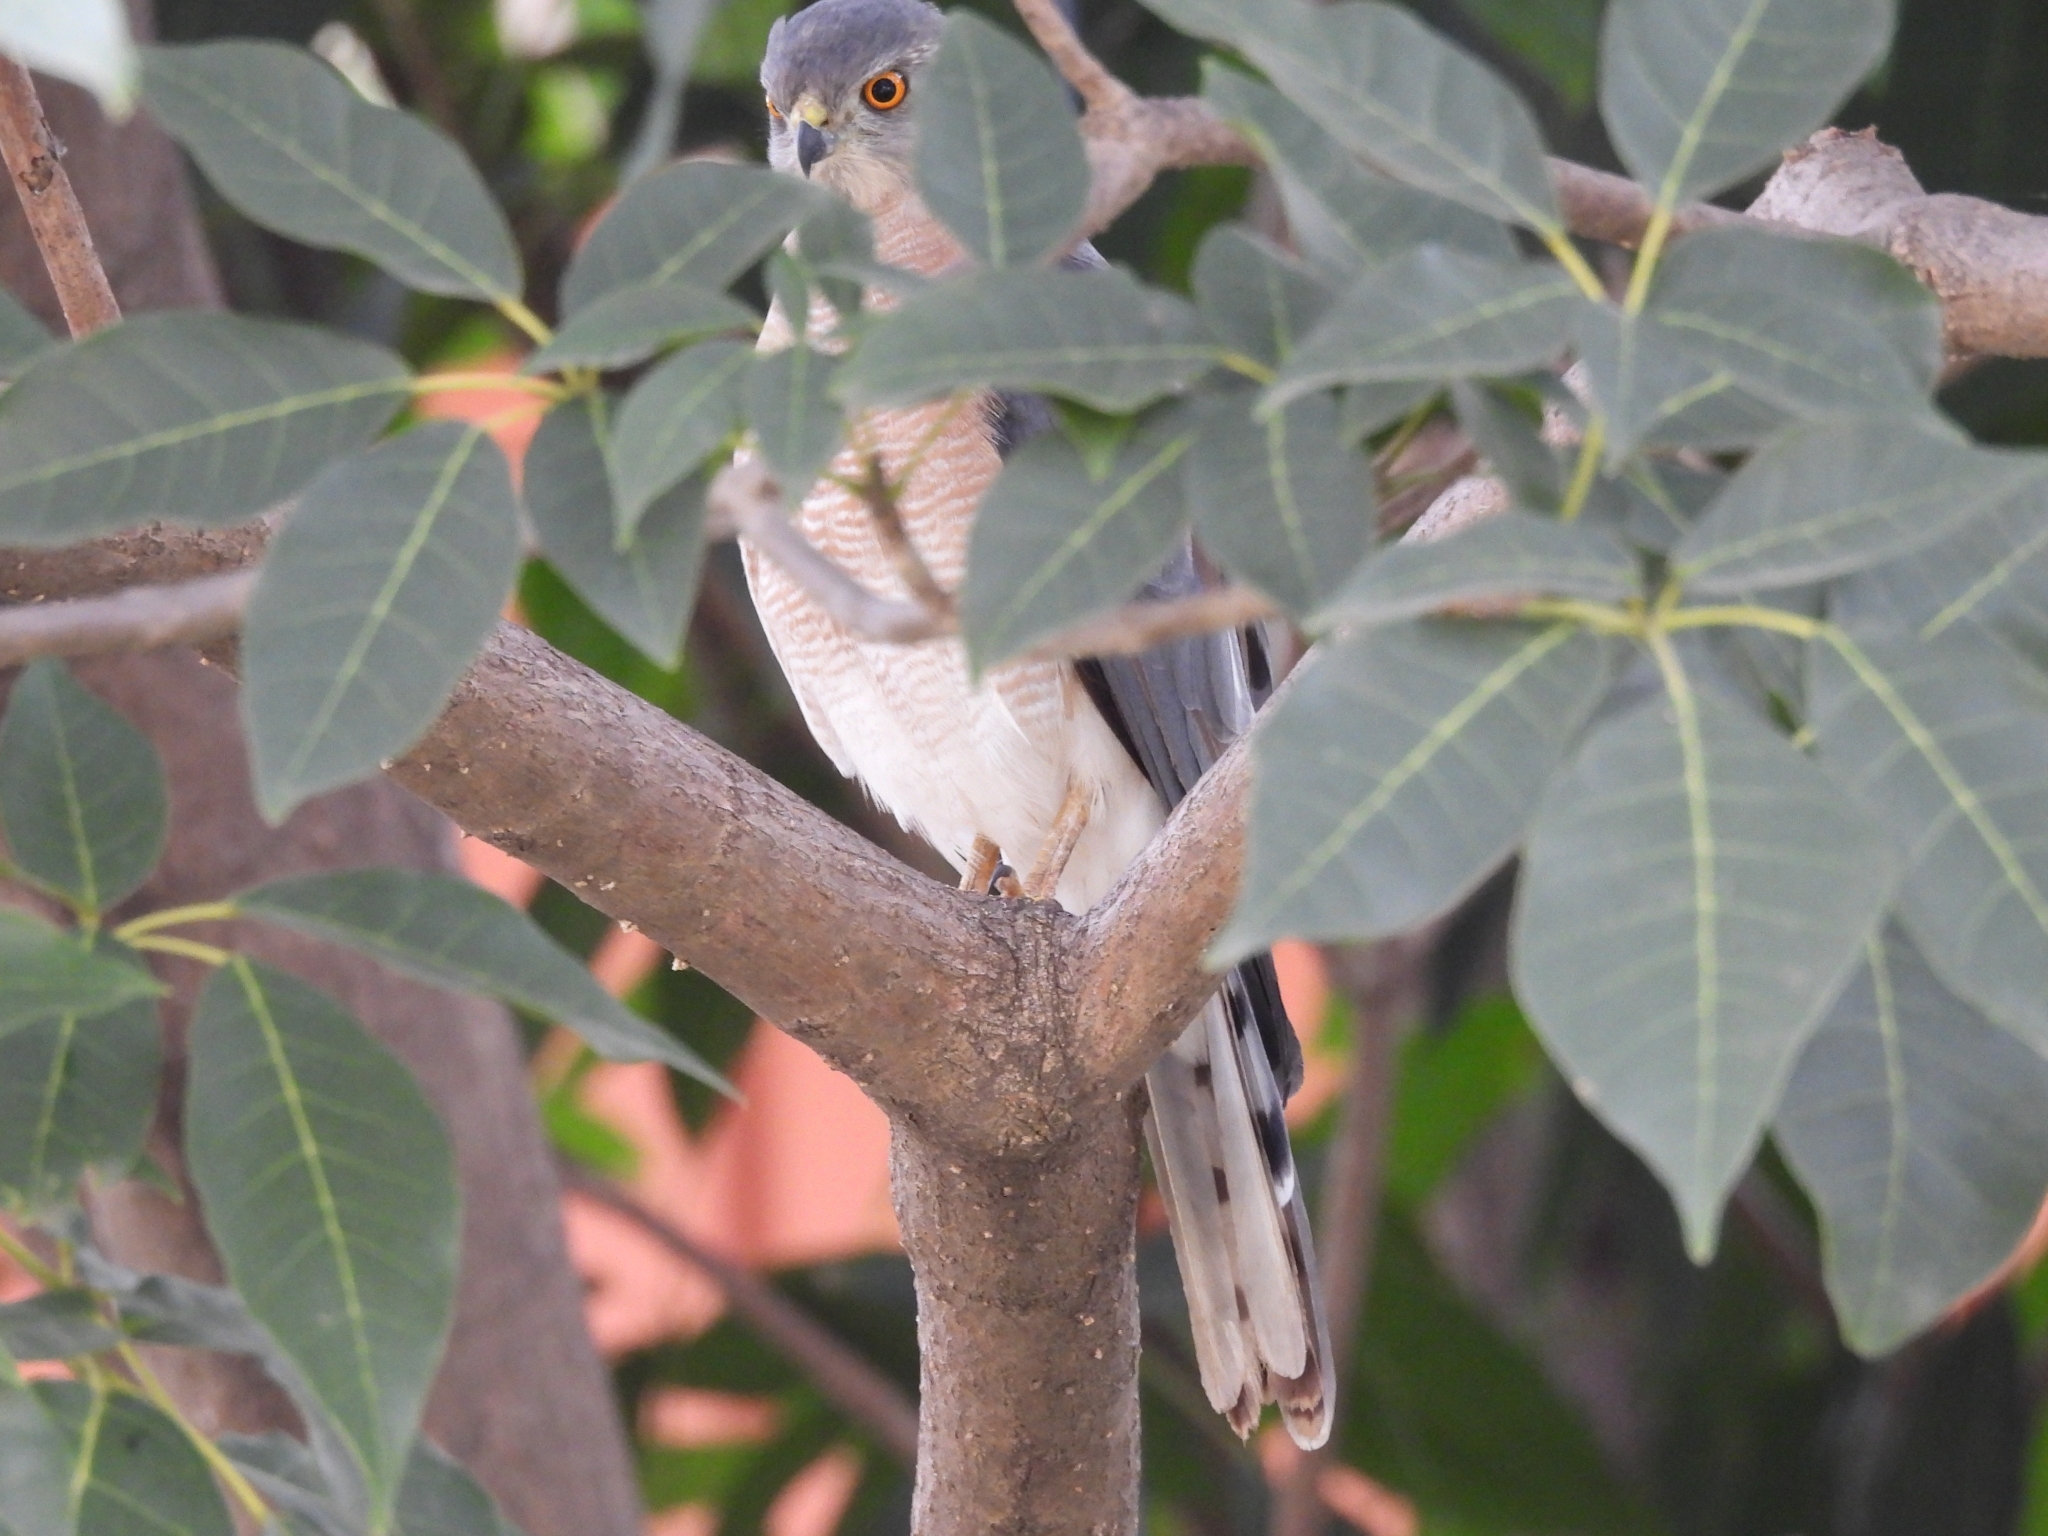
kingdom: Animalia
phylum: Chordata
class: Aves
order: Accipitriformes
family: Accipitridae
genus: Accipiter
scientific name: Accipiter badius
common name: Shikra
